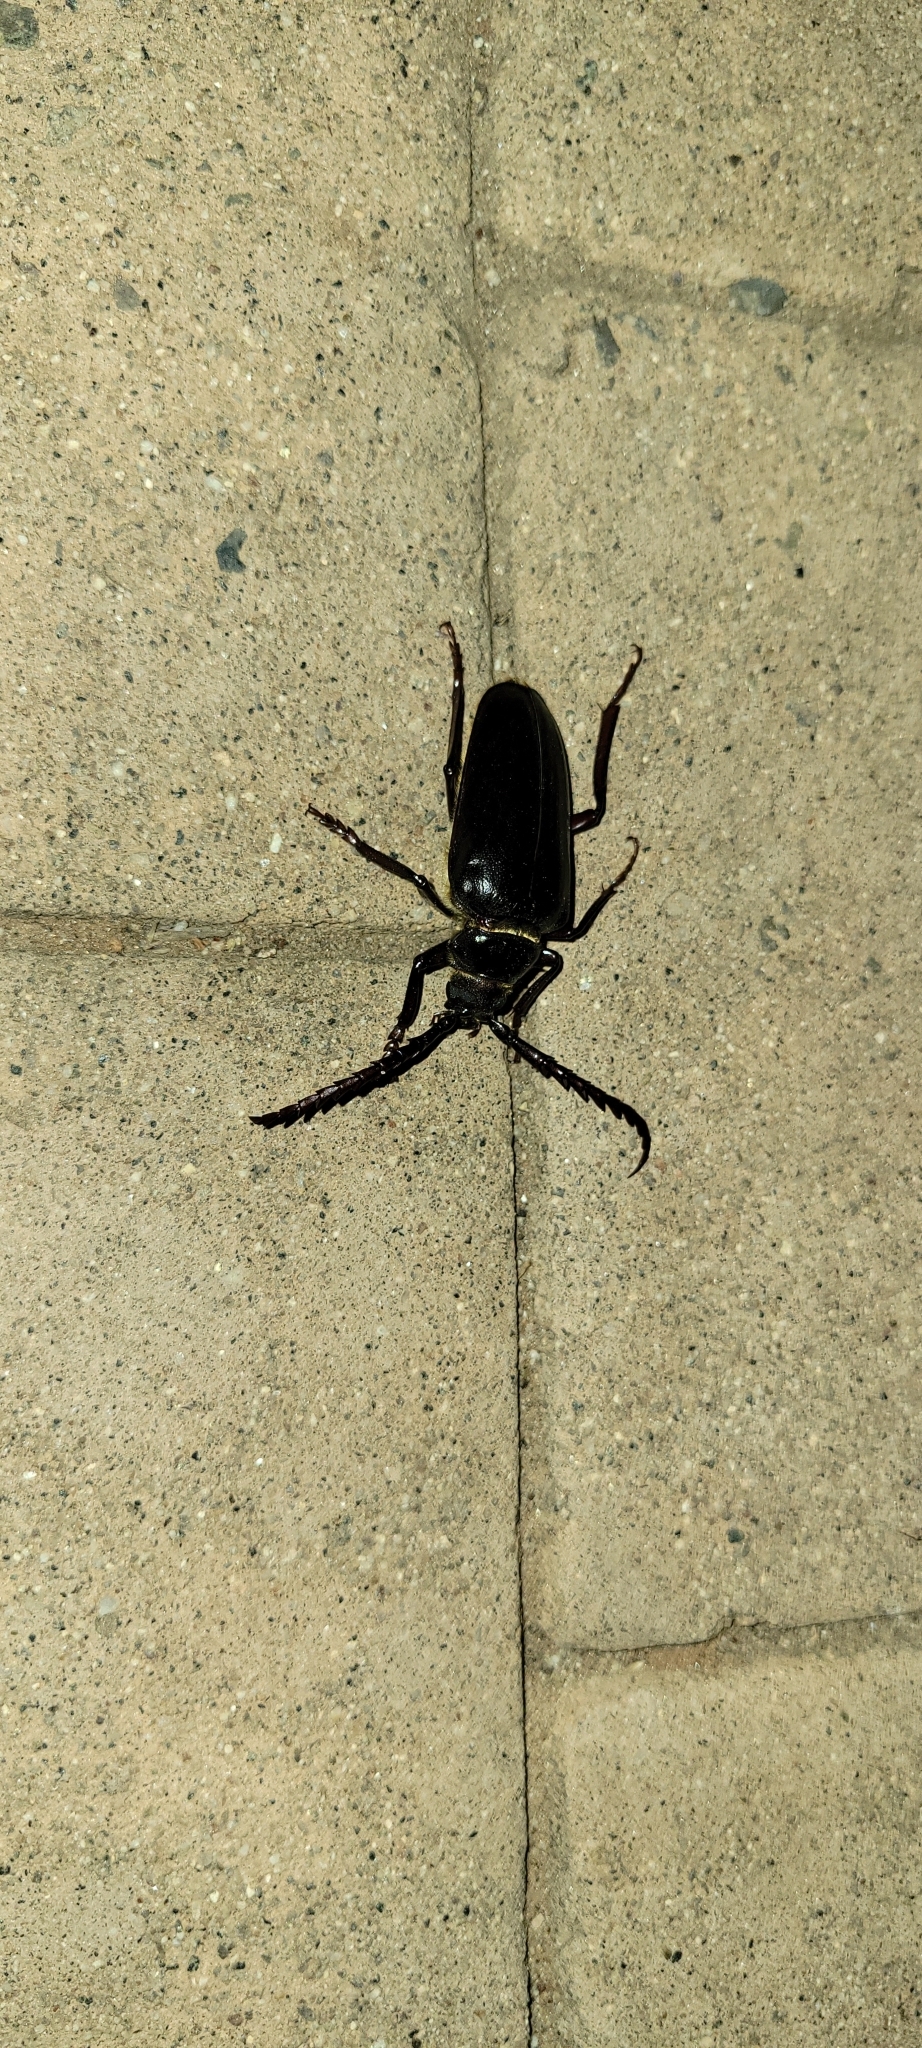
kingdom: Animalia
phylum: Arthropoda
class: Insecta
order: Coleoptera
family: Cerambycidae
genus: Prionus
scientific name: Prionus californicus
